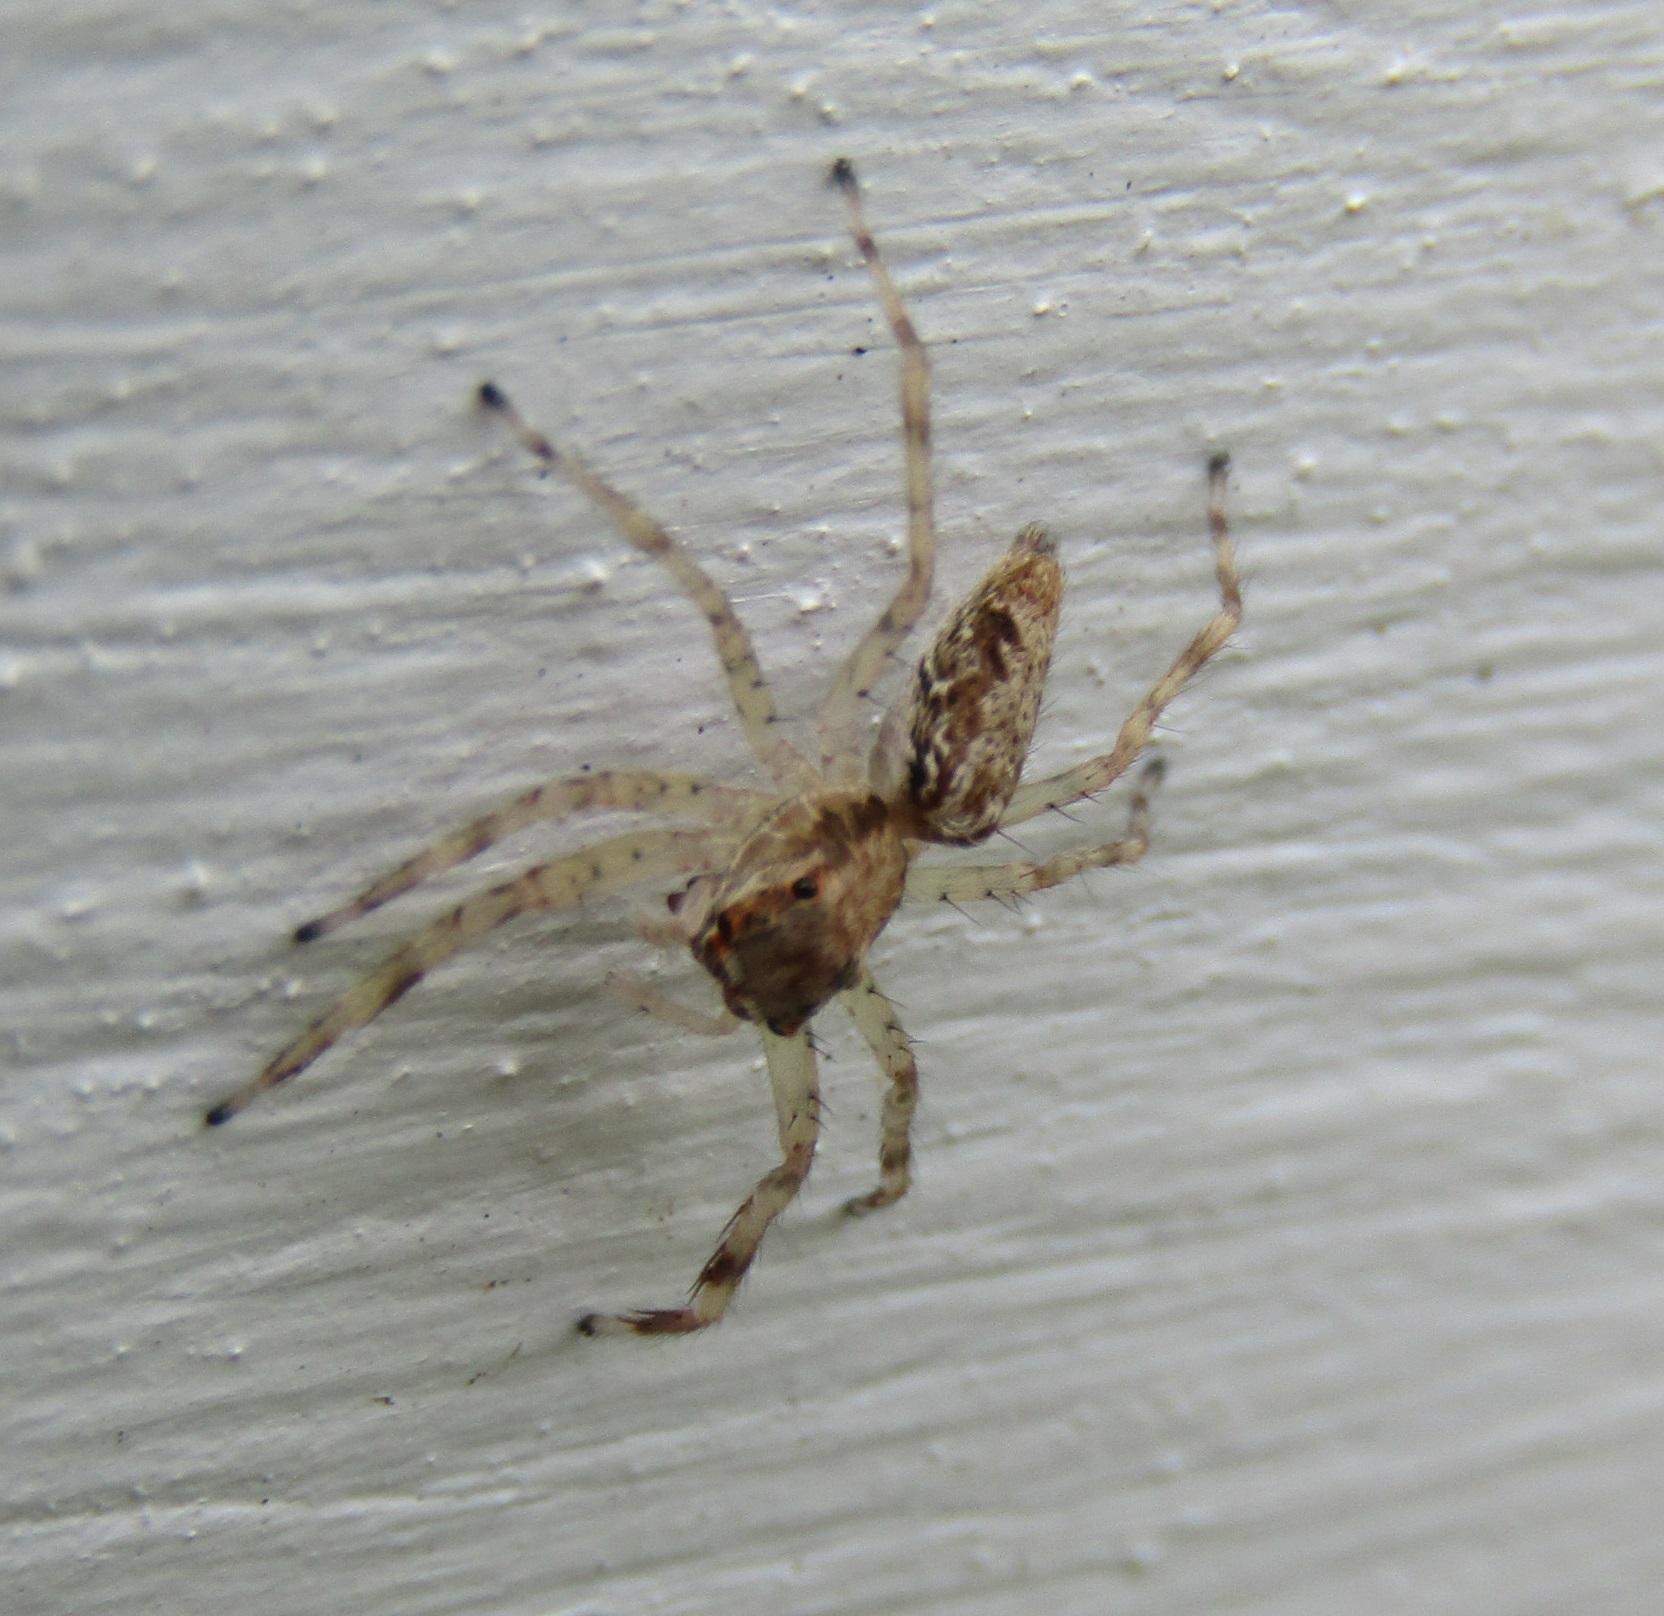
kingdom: Animalia
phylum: Arthropoda
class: Arachnida
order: Araneae
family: Salticidae
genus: Helpis
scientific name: Helpis minitabunda
